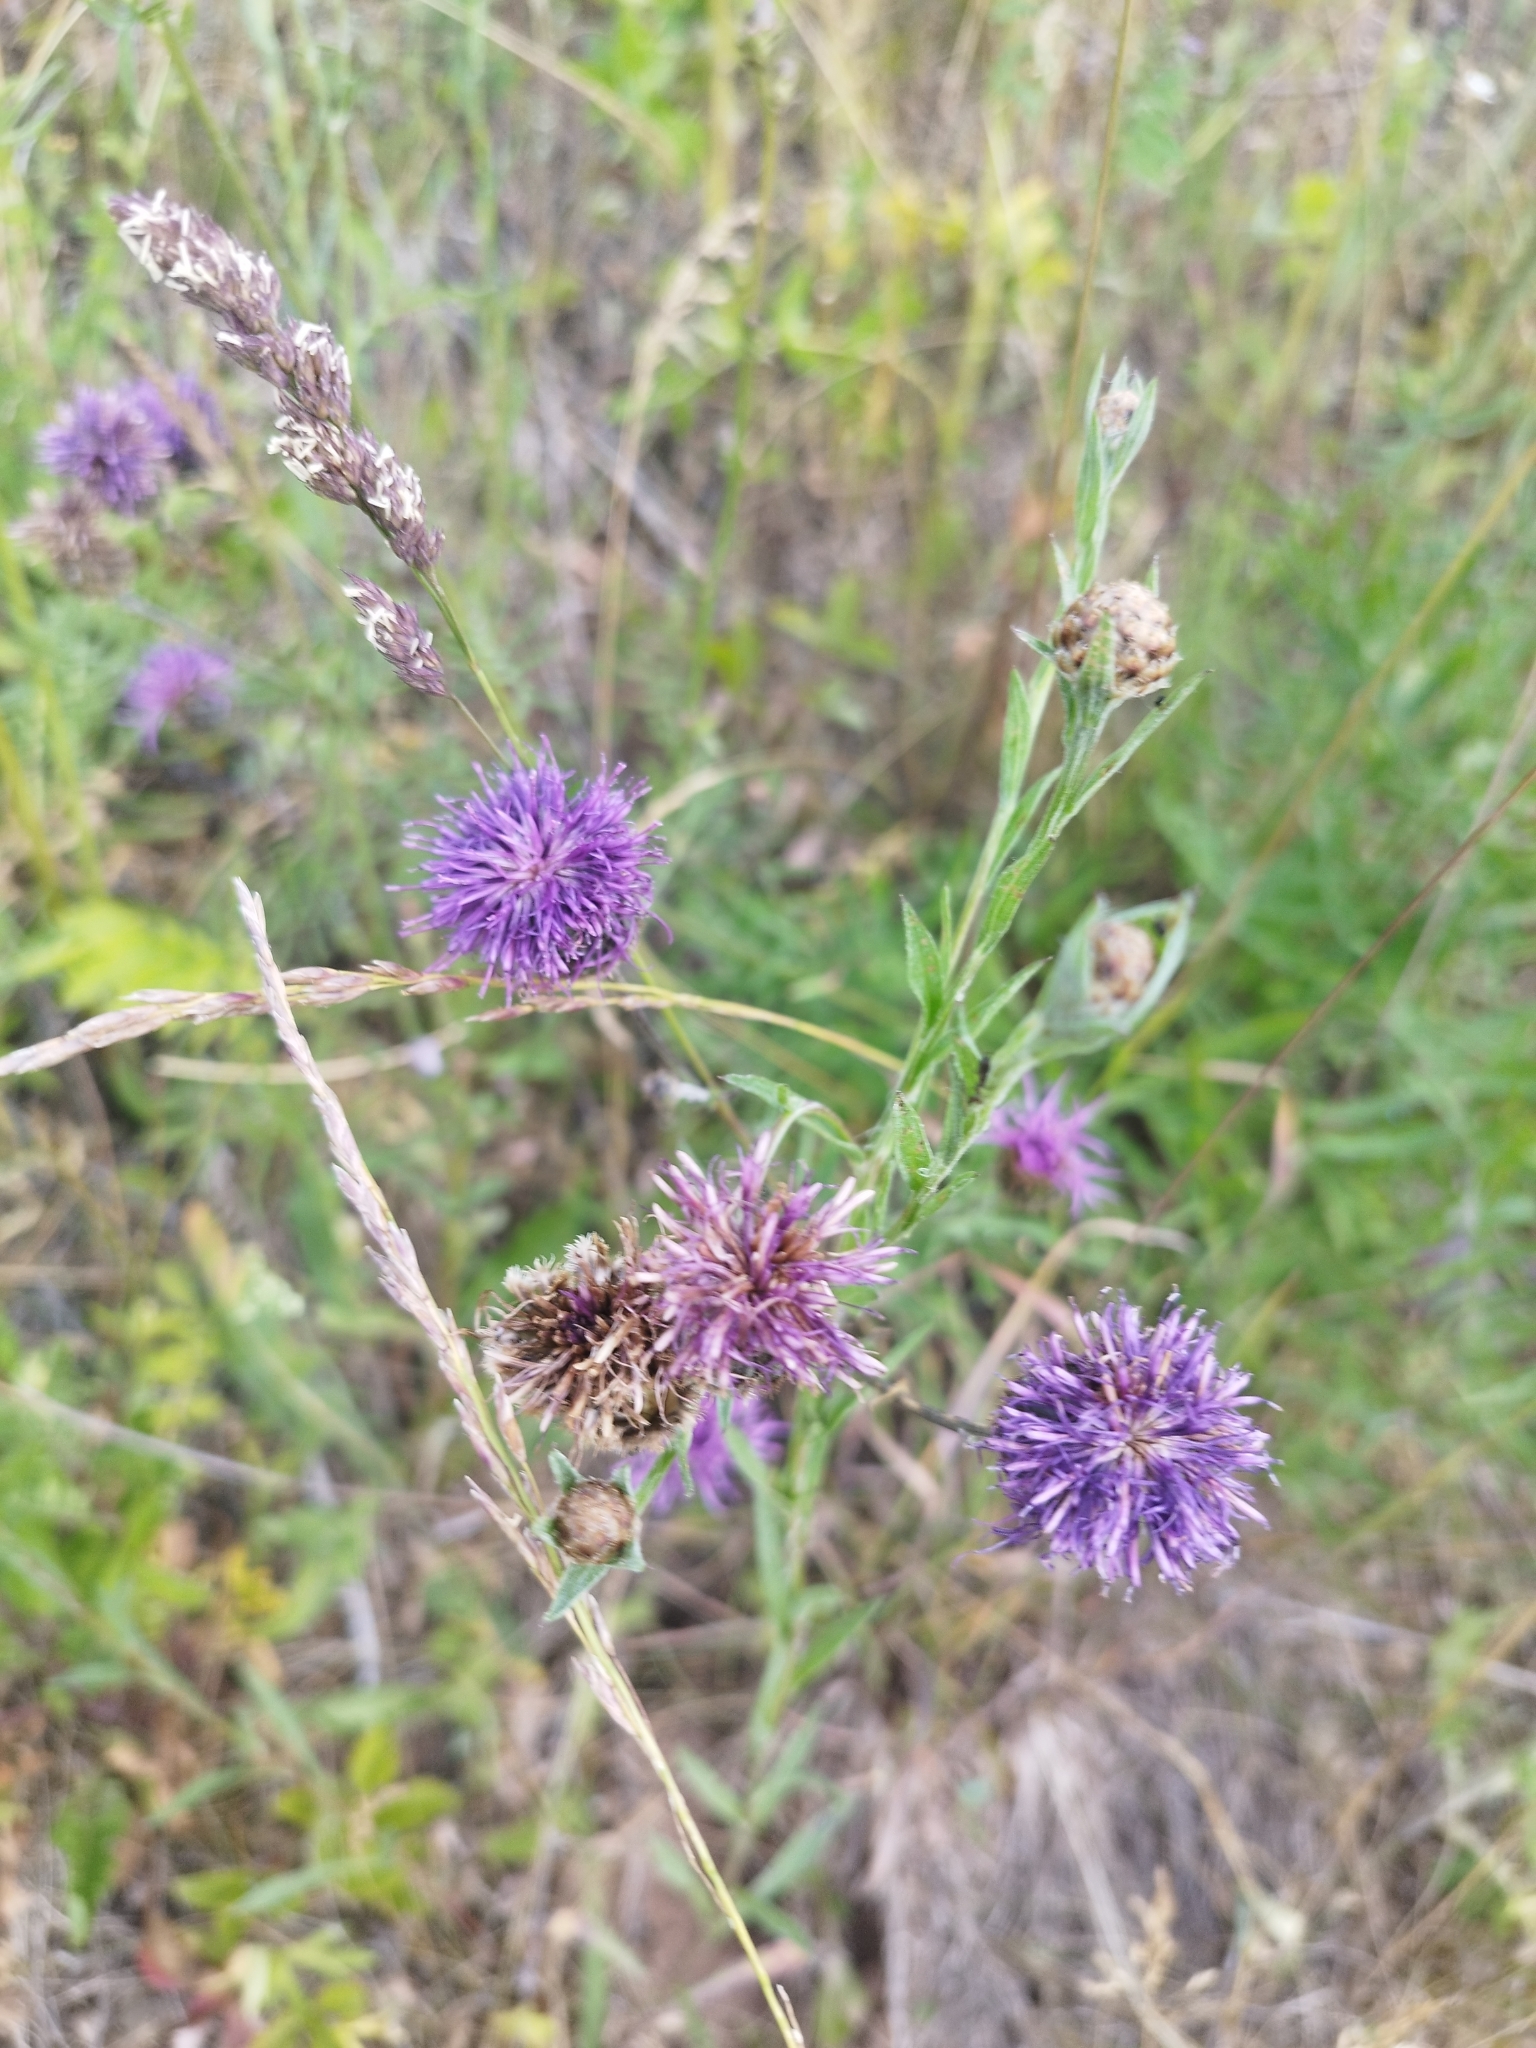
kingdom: Plantae
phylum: Tracheophyta
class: Magnoliopsida
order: Asterales
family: Asteraceae
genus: Centaurea
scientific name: Centaurea jacea
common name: Brown knapweed
